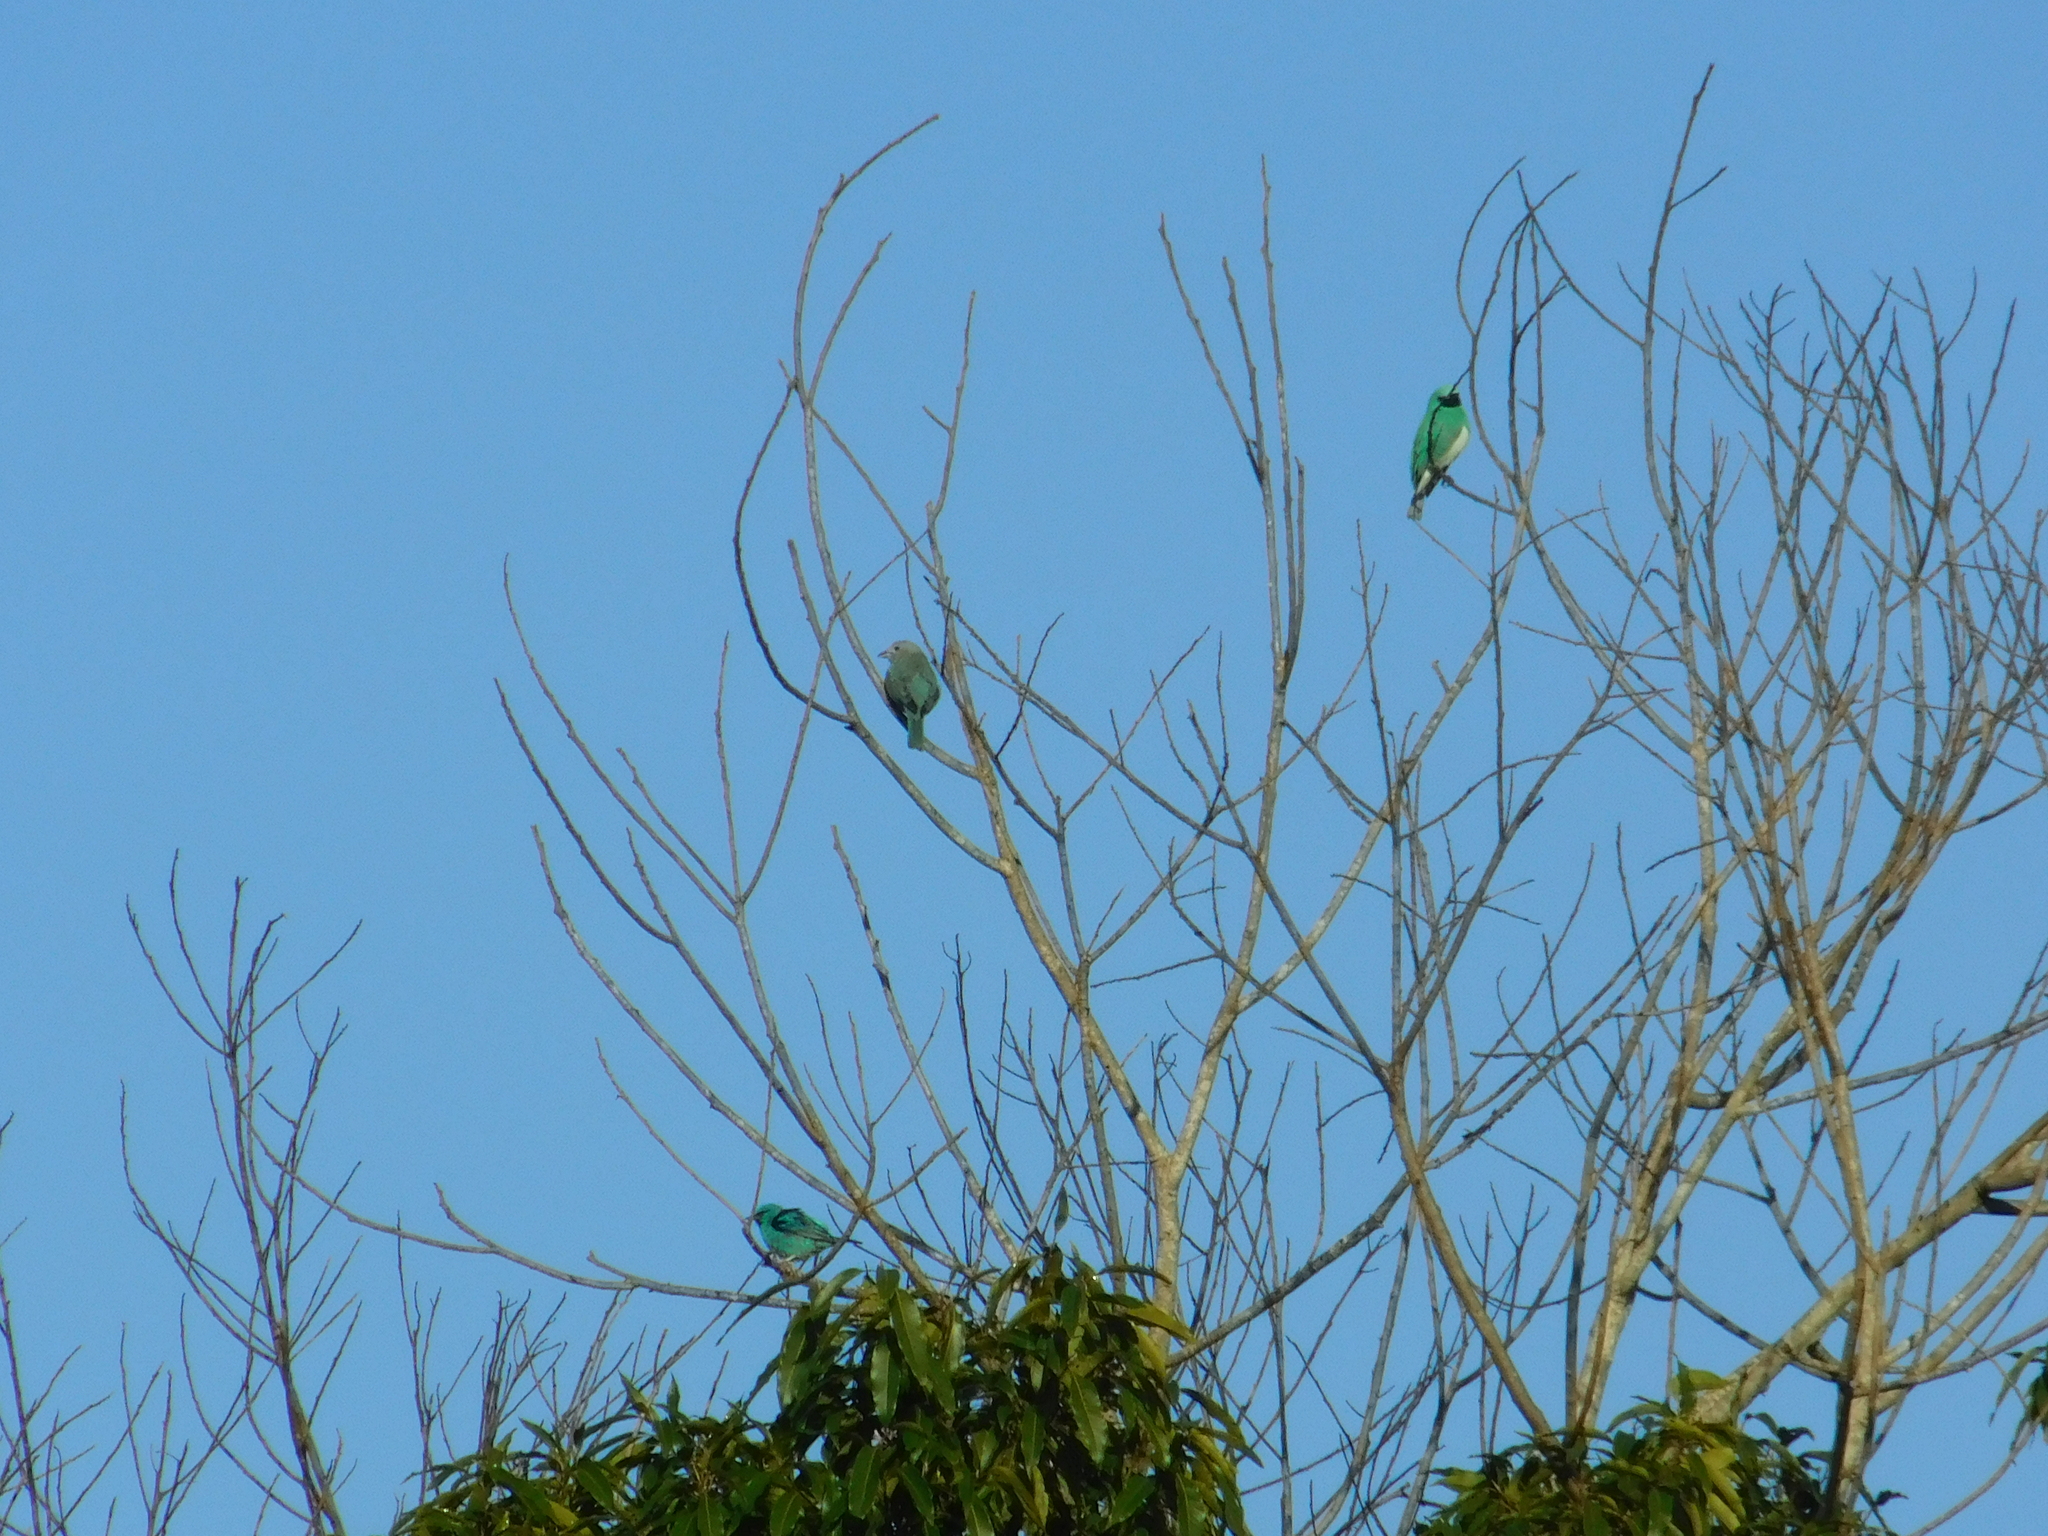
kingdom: Animalia
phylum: Chordata
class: Aves
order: Passeriformes
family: Thraupidae
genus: Dacnis
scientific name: Dacnis cayana
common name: Blue dacnis
